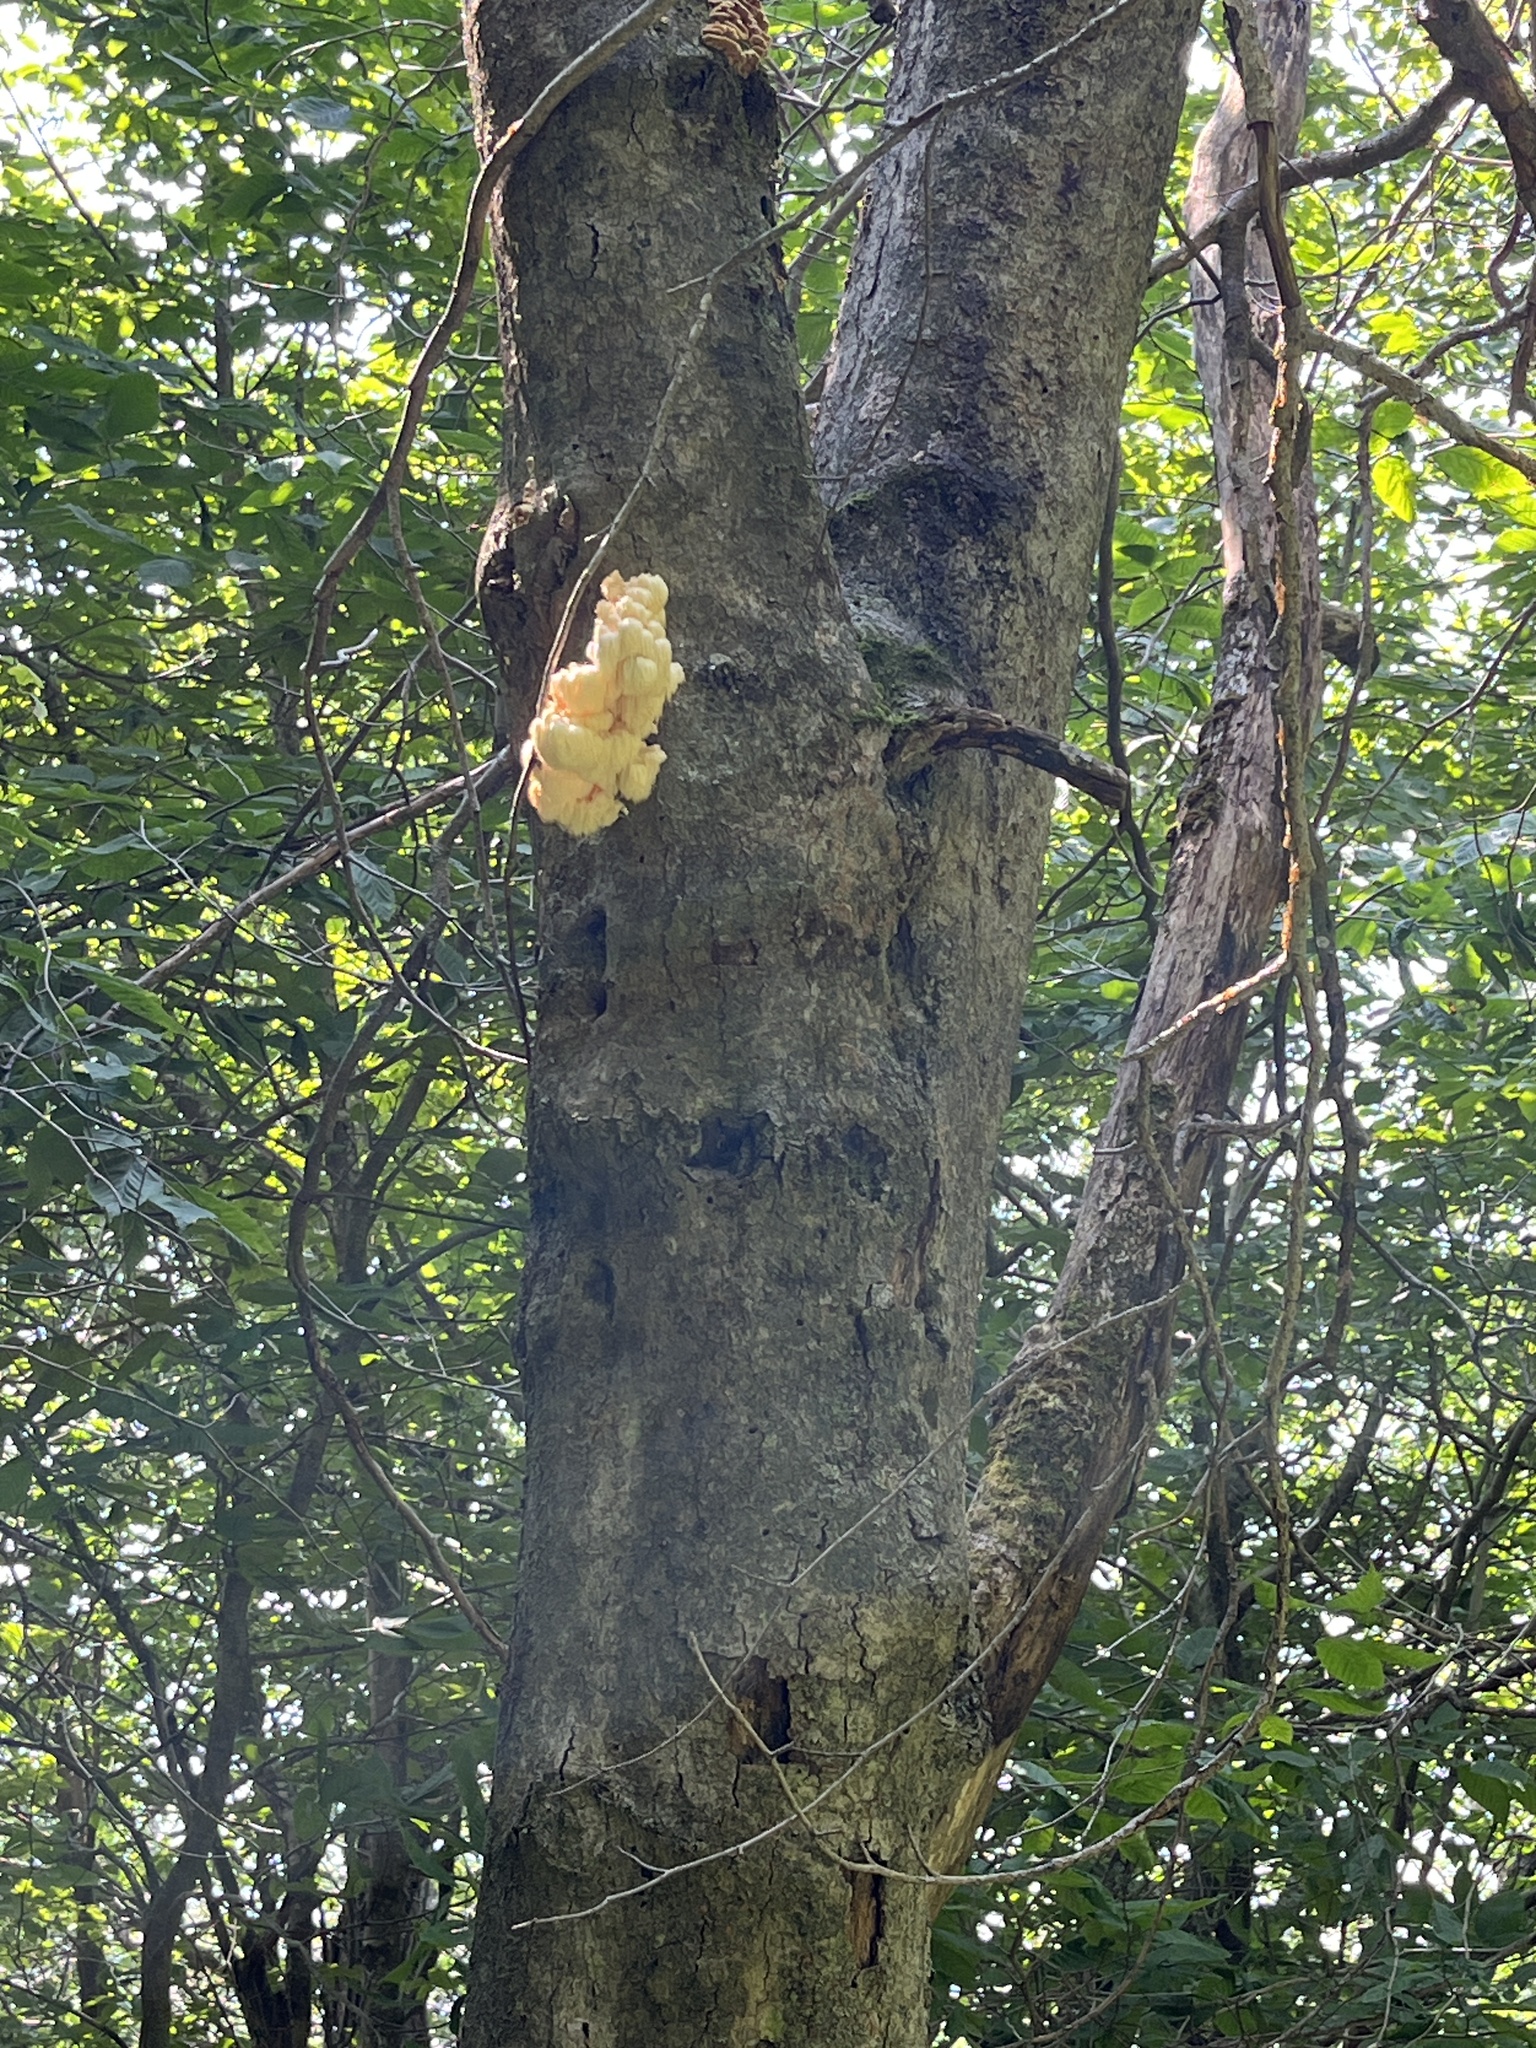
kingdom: Fungi
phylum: Basidiomycota
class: Agaricomycetes
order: Russulales
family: Hericiaceae
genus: Hericium
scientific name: Hericium americanum
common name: Bear's head tooth
